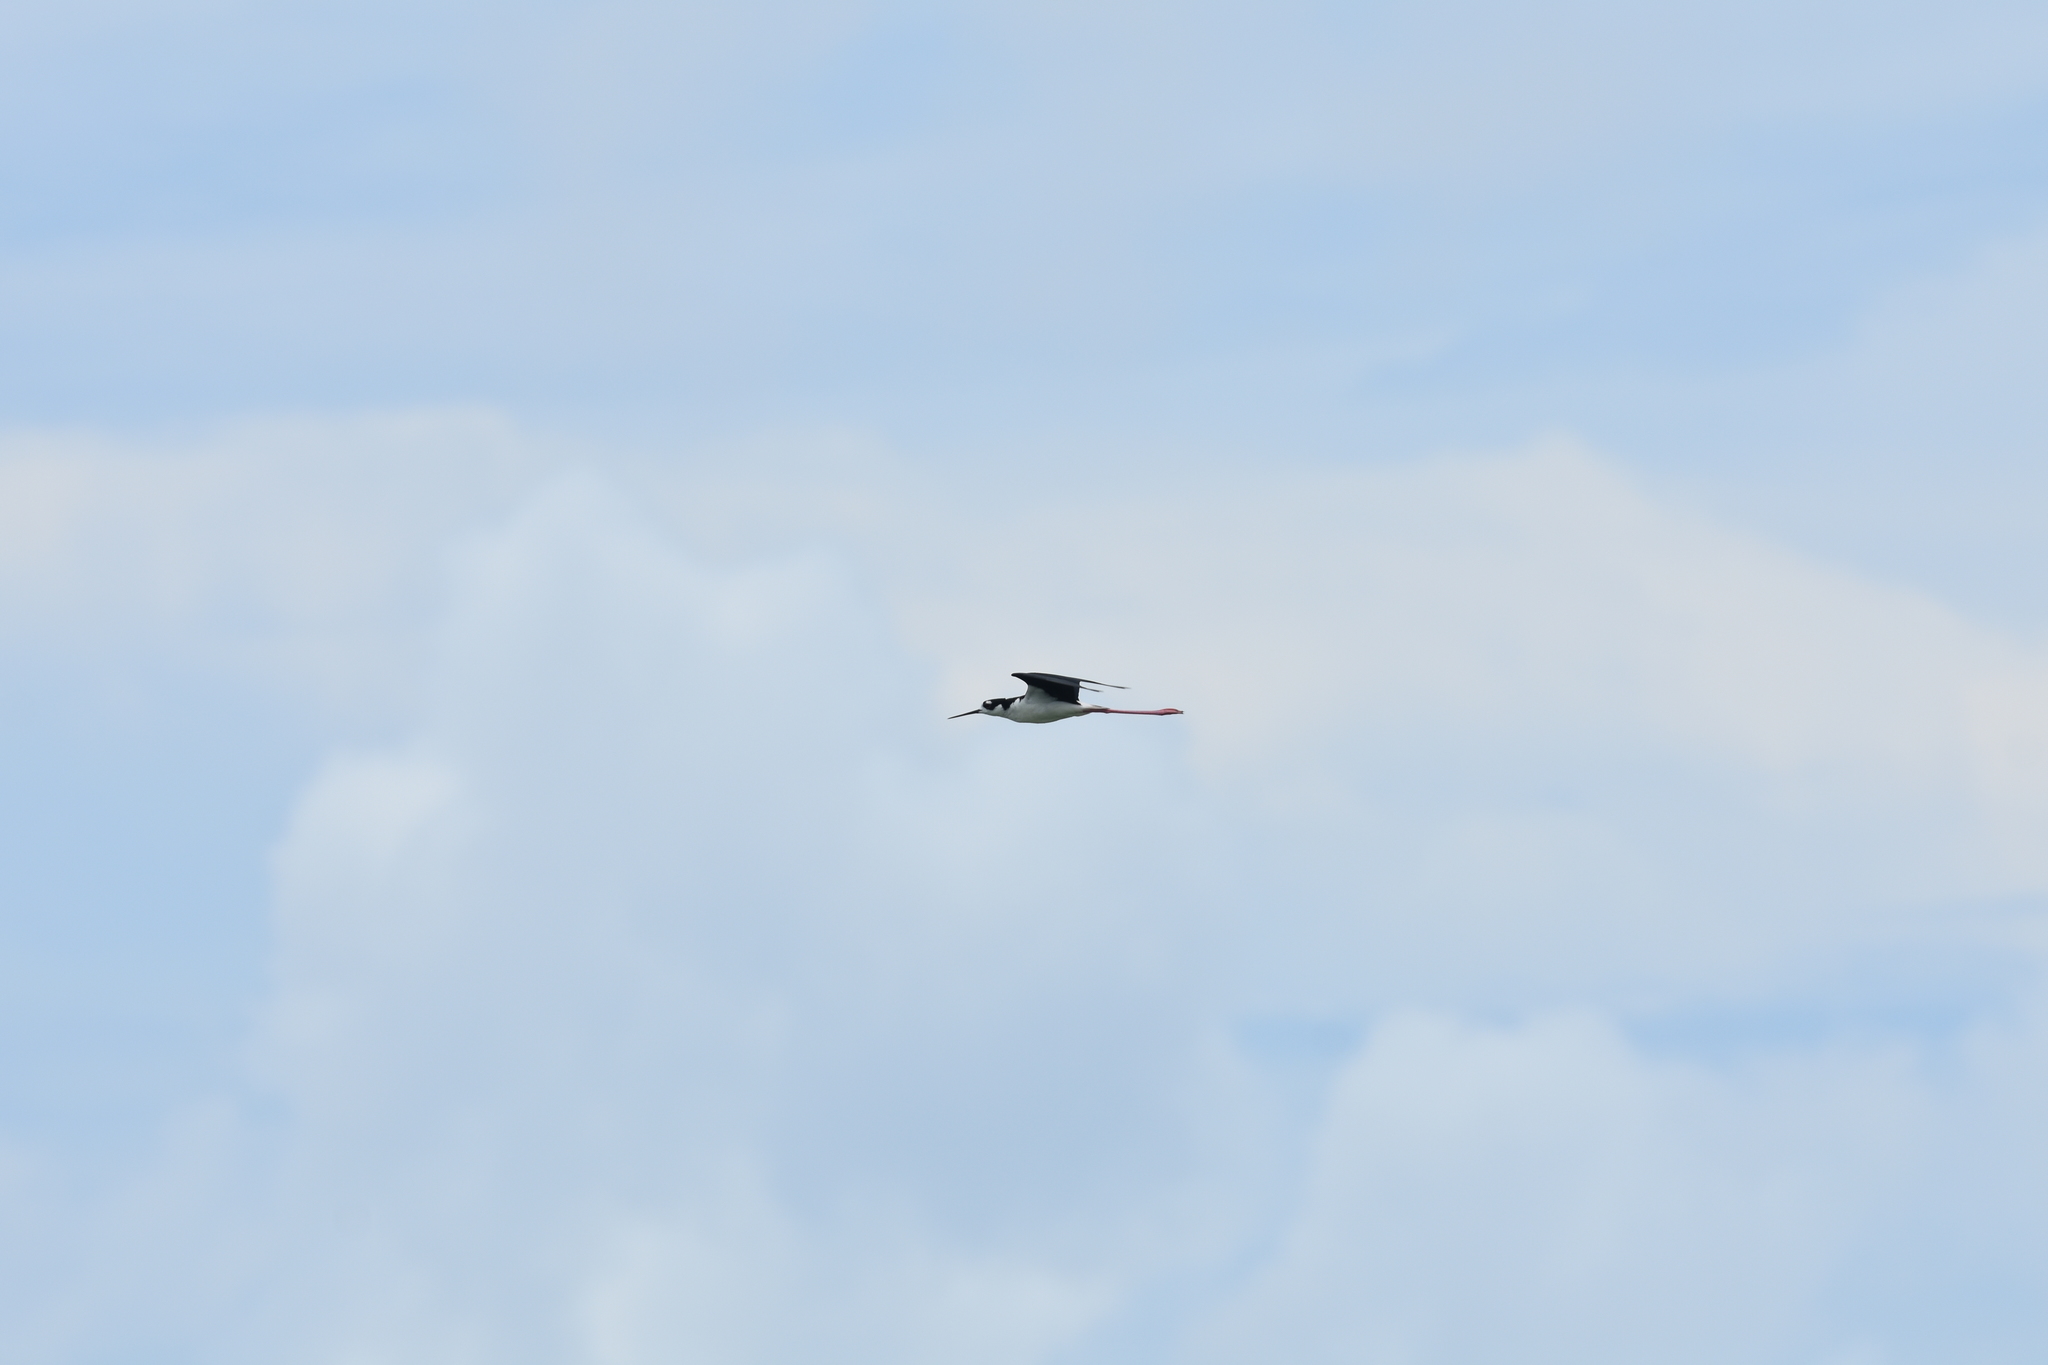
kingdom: Animalia
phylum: Chordata
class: Aves
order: Charadriiformes
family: Recurvirostridae
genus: Himantopus
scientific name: Himantopus mexicanus
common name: Black-necked stilt
